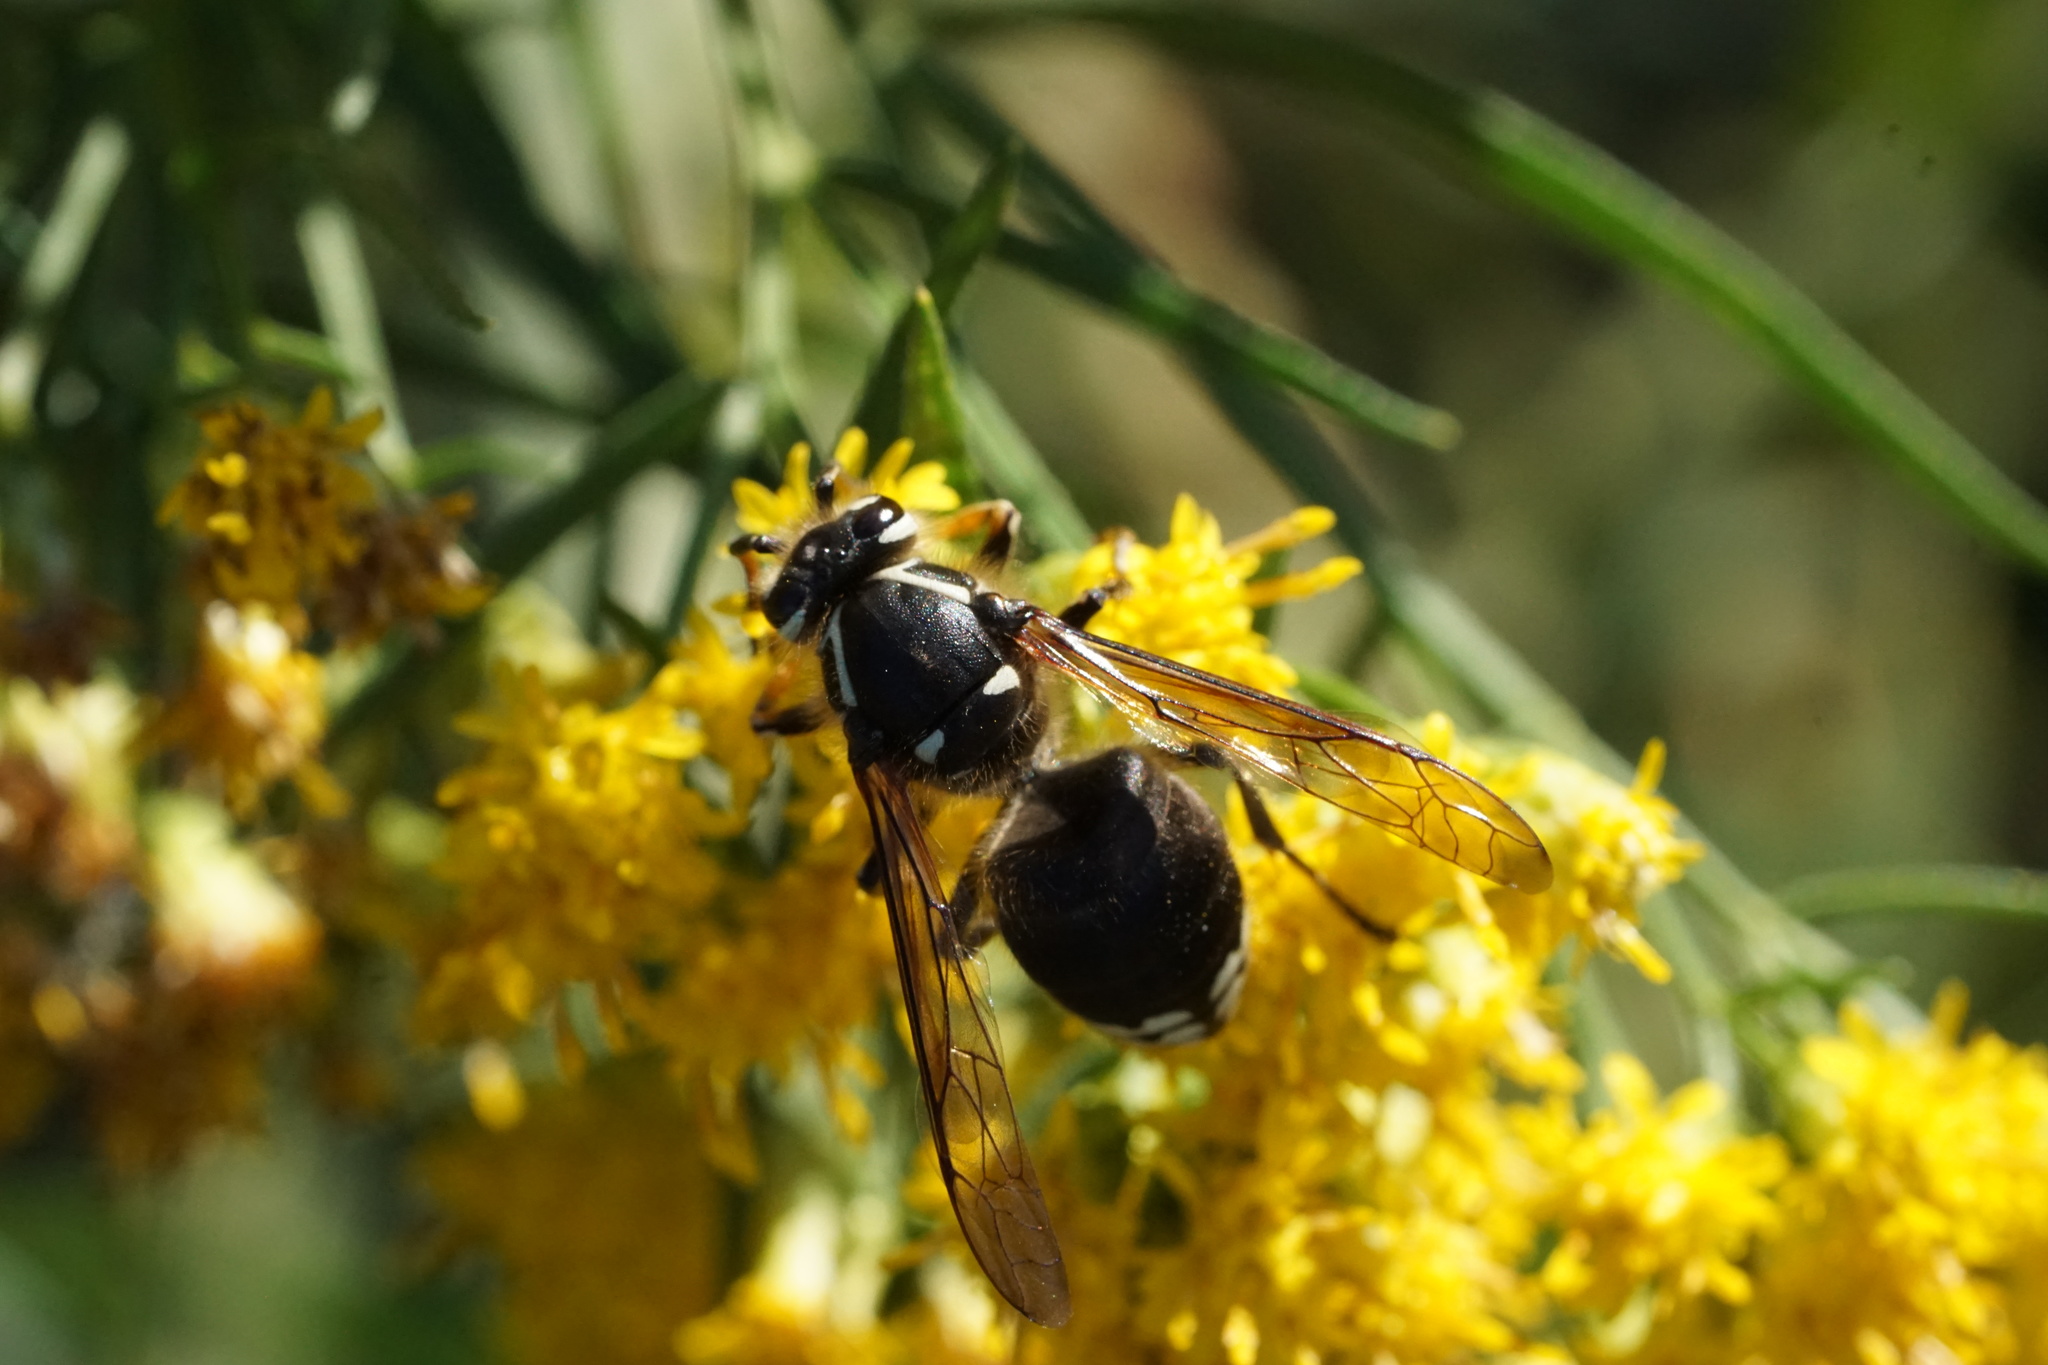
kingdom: Animalia
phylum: Arthropoda
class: Insecta
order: Hymenoptera
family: Vespidae
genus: Dolichovespula
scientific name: Dolichovespula maculata
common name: Bald-faced hornet
